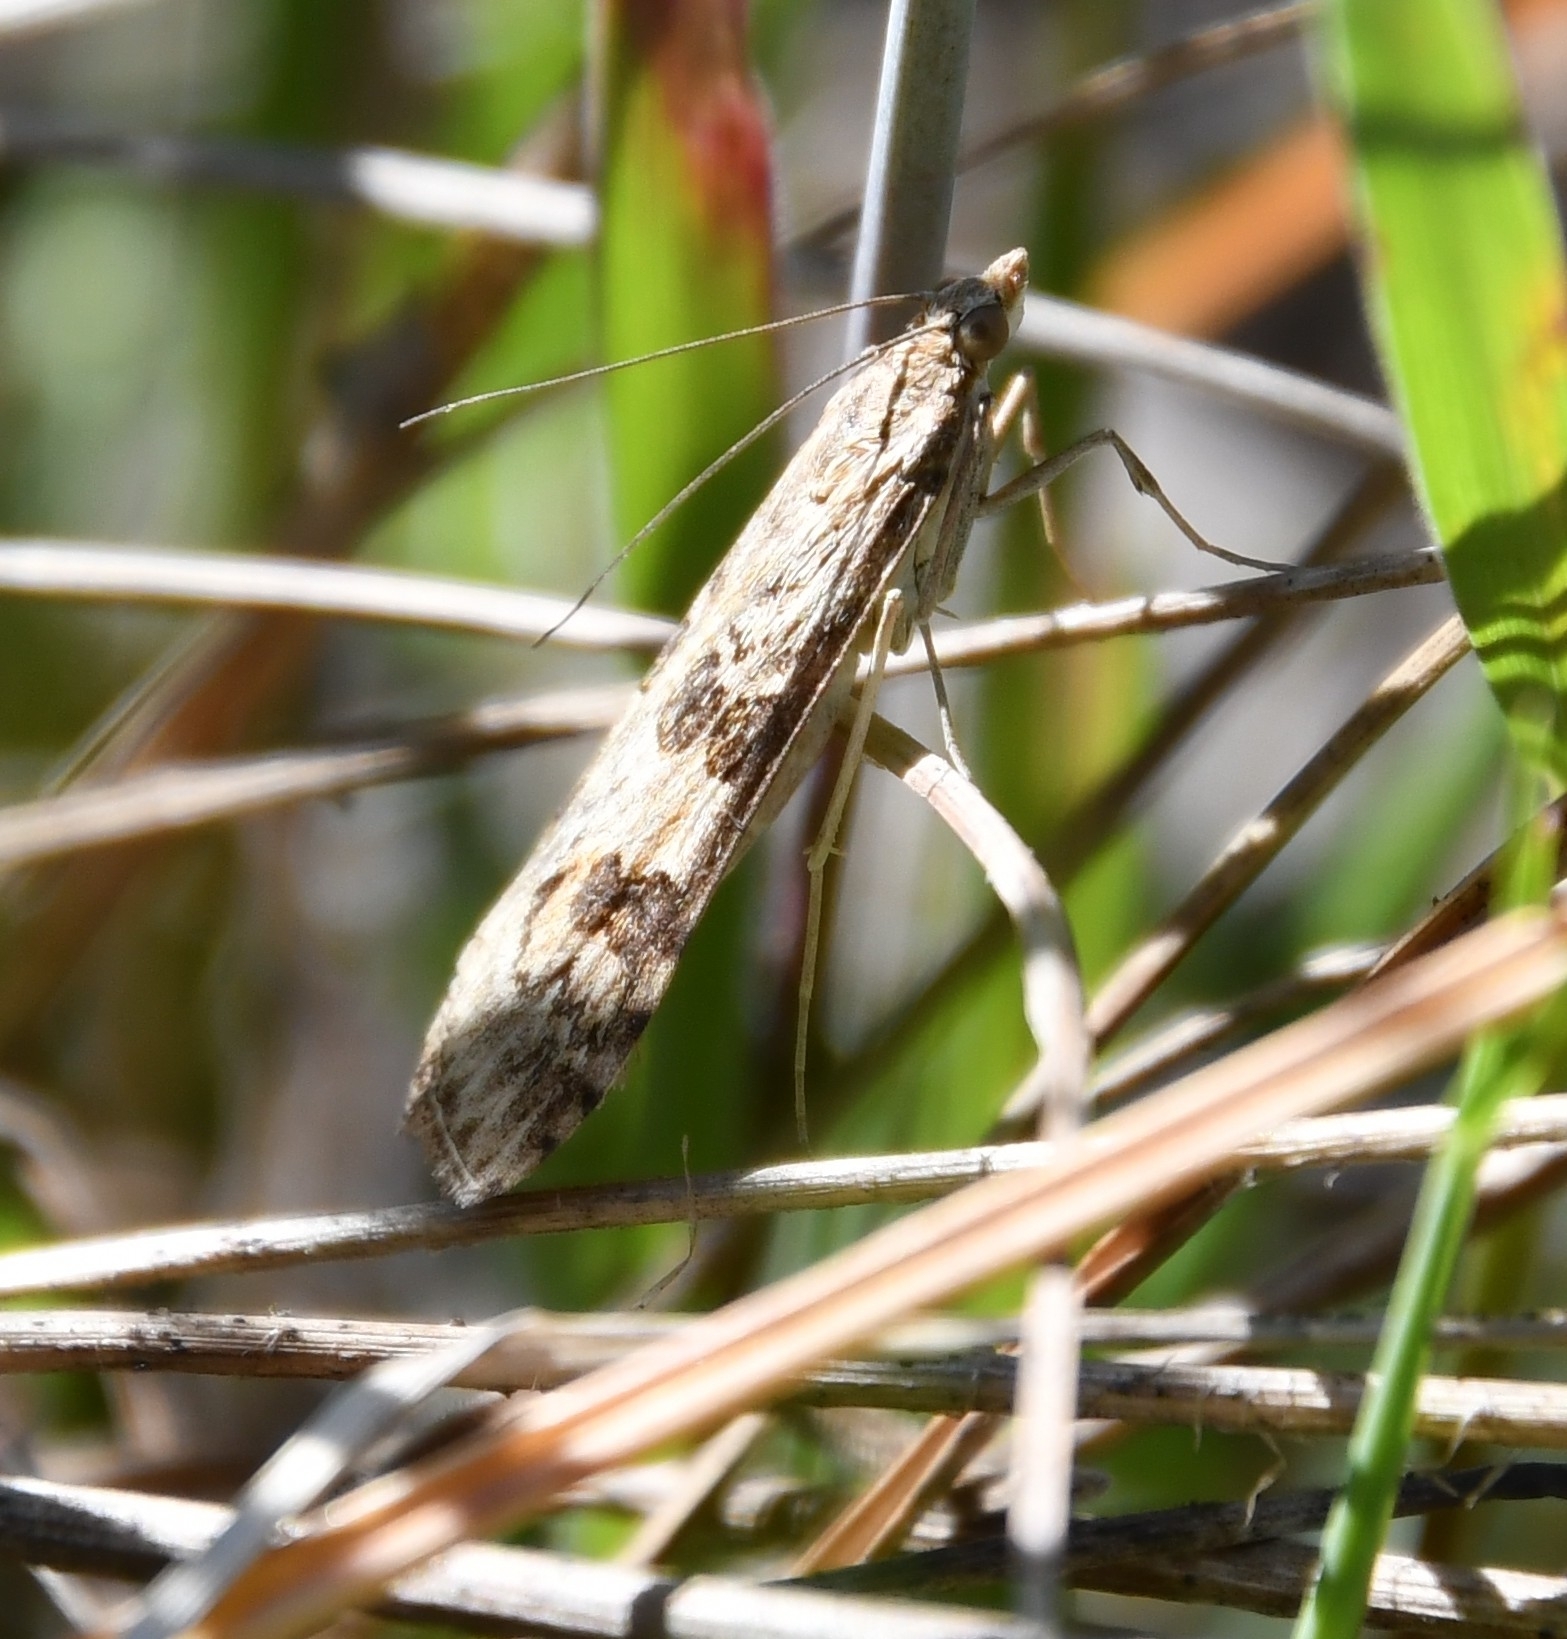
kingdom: Animalia
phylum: Arthropoda
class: Insecta
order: Lepidoptera
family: Crambidae
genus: Nomophila
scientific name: Nomophila noctuella
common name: Rush veneer
